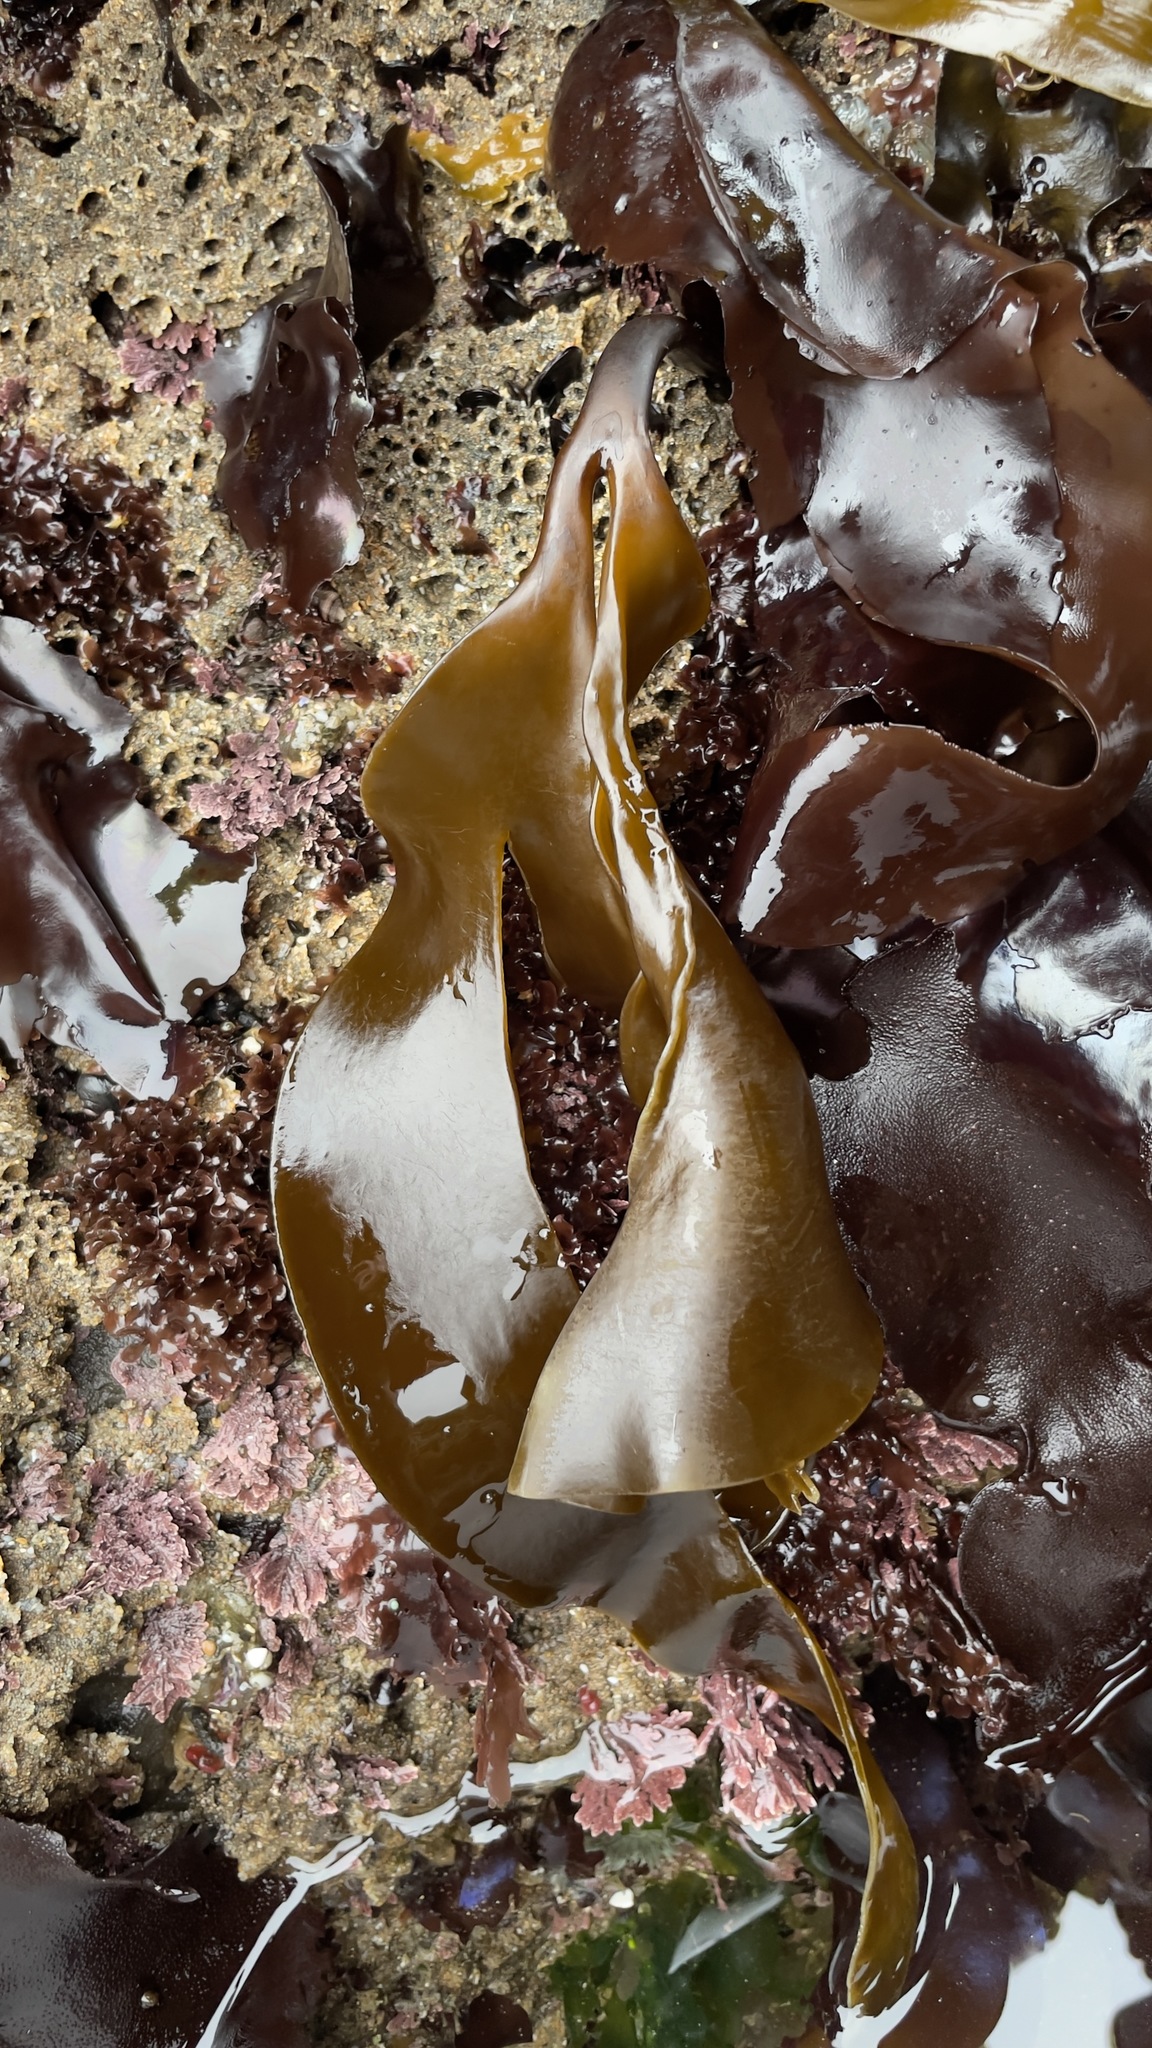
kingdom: Chromista
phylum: Ochrophyta
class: Phaeophyceae
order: Laminariales
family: Laminariaceae
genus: Laminaria
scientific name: Laminaria setchellii
